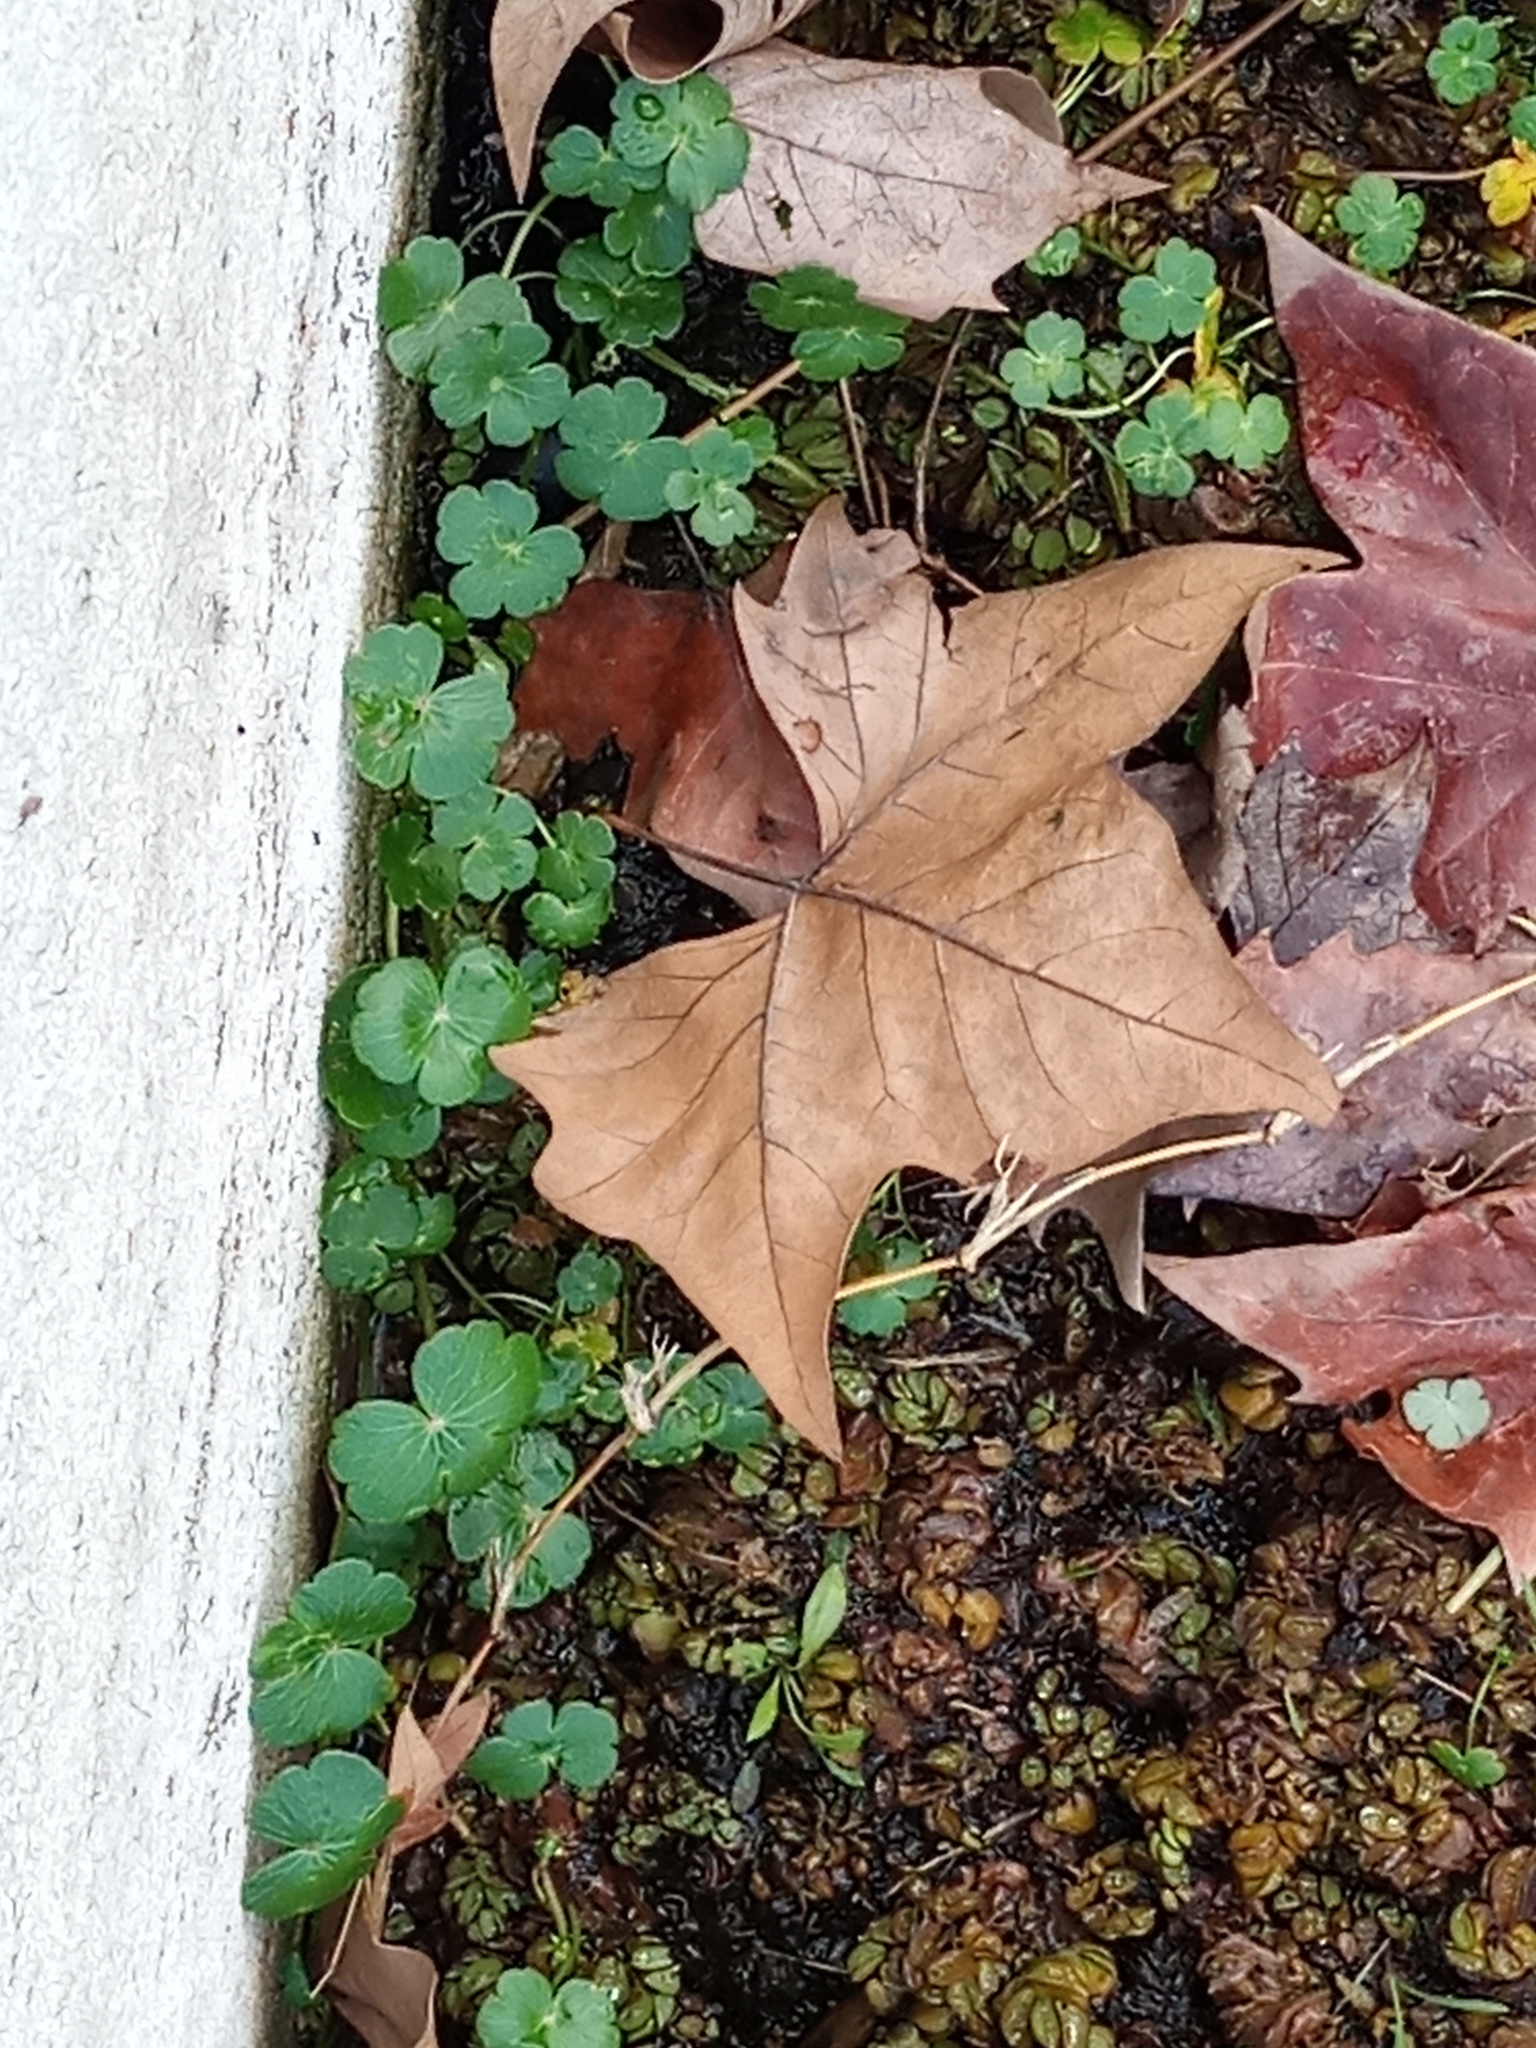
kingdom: Plantae
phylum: Tracheophyta
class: Magnoliopsida
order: Apiales
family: Araliaceae
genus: Hydrocotyle
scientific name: Hydrocotyle ranunculoides
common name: Floating pennywort
